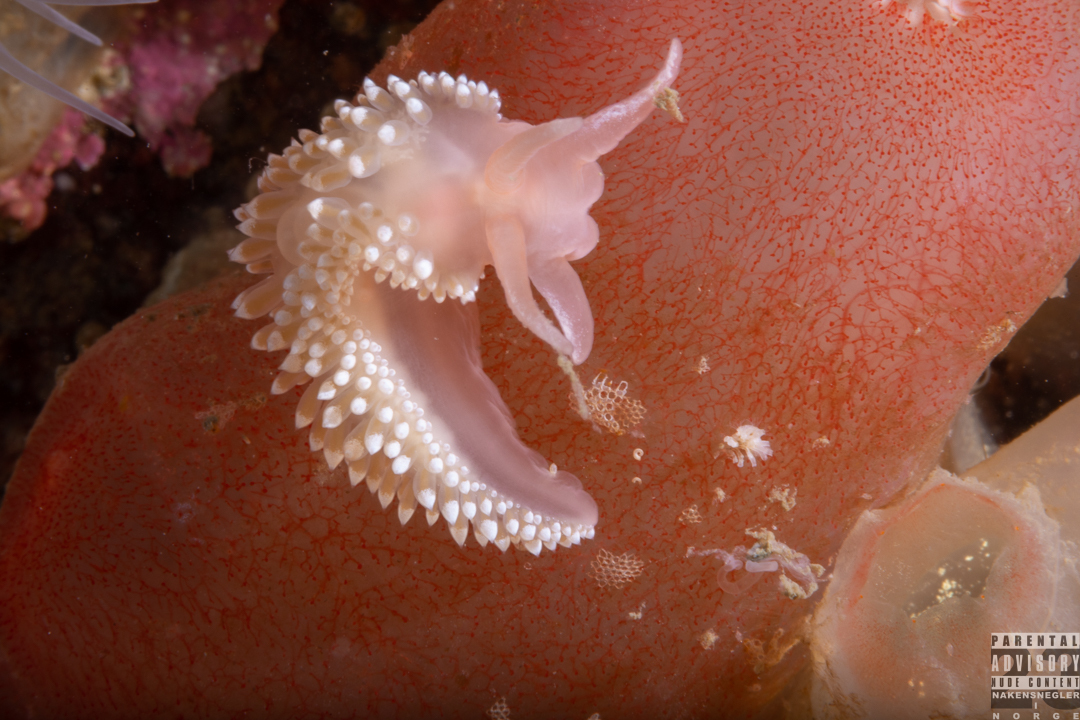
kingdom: Animalia
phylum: Mollusca
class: Gastropoda
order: Nudibranchia
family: Coryphellidae
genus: Coryphella
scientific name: Coryphella verrucosa
